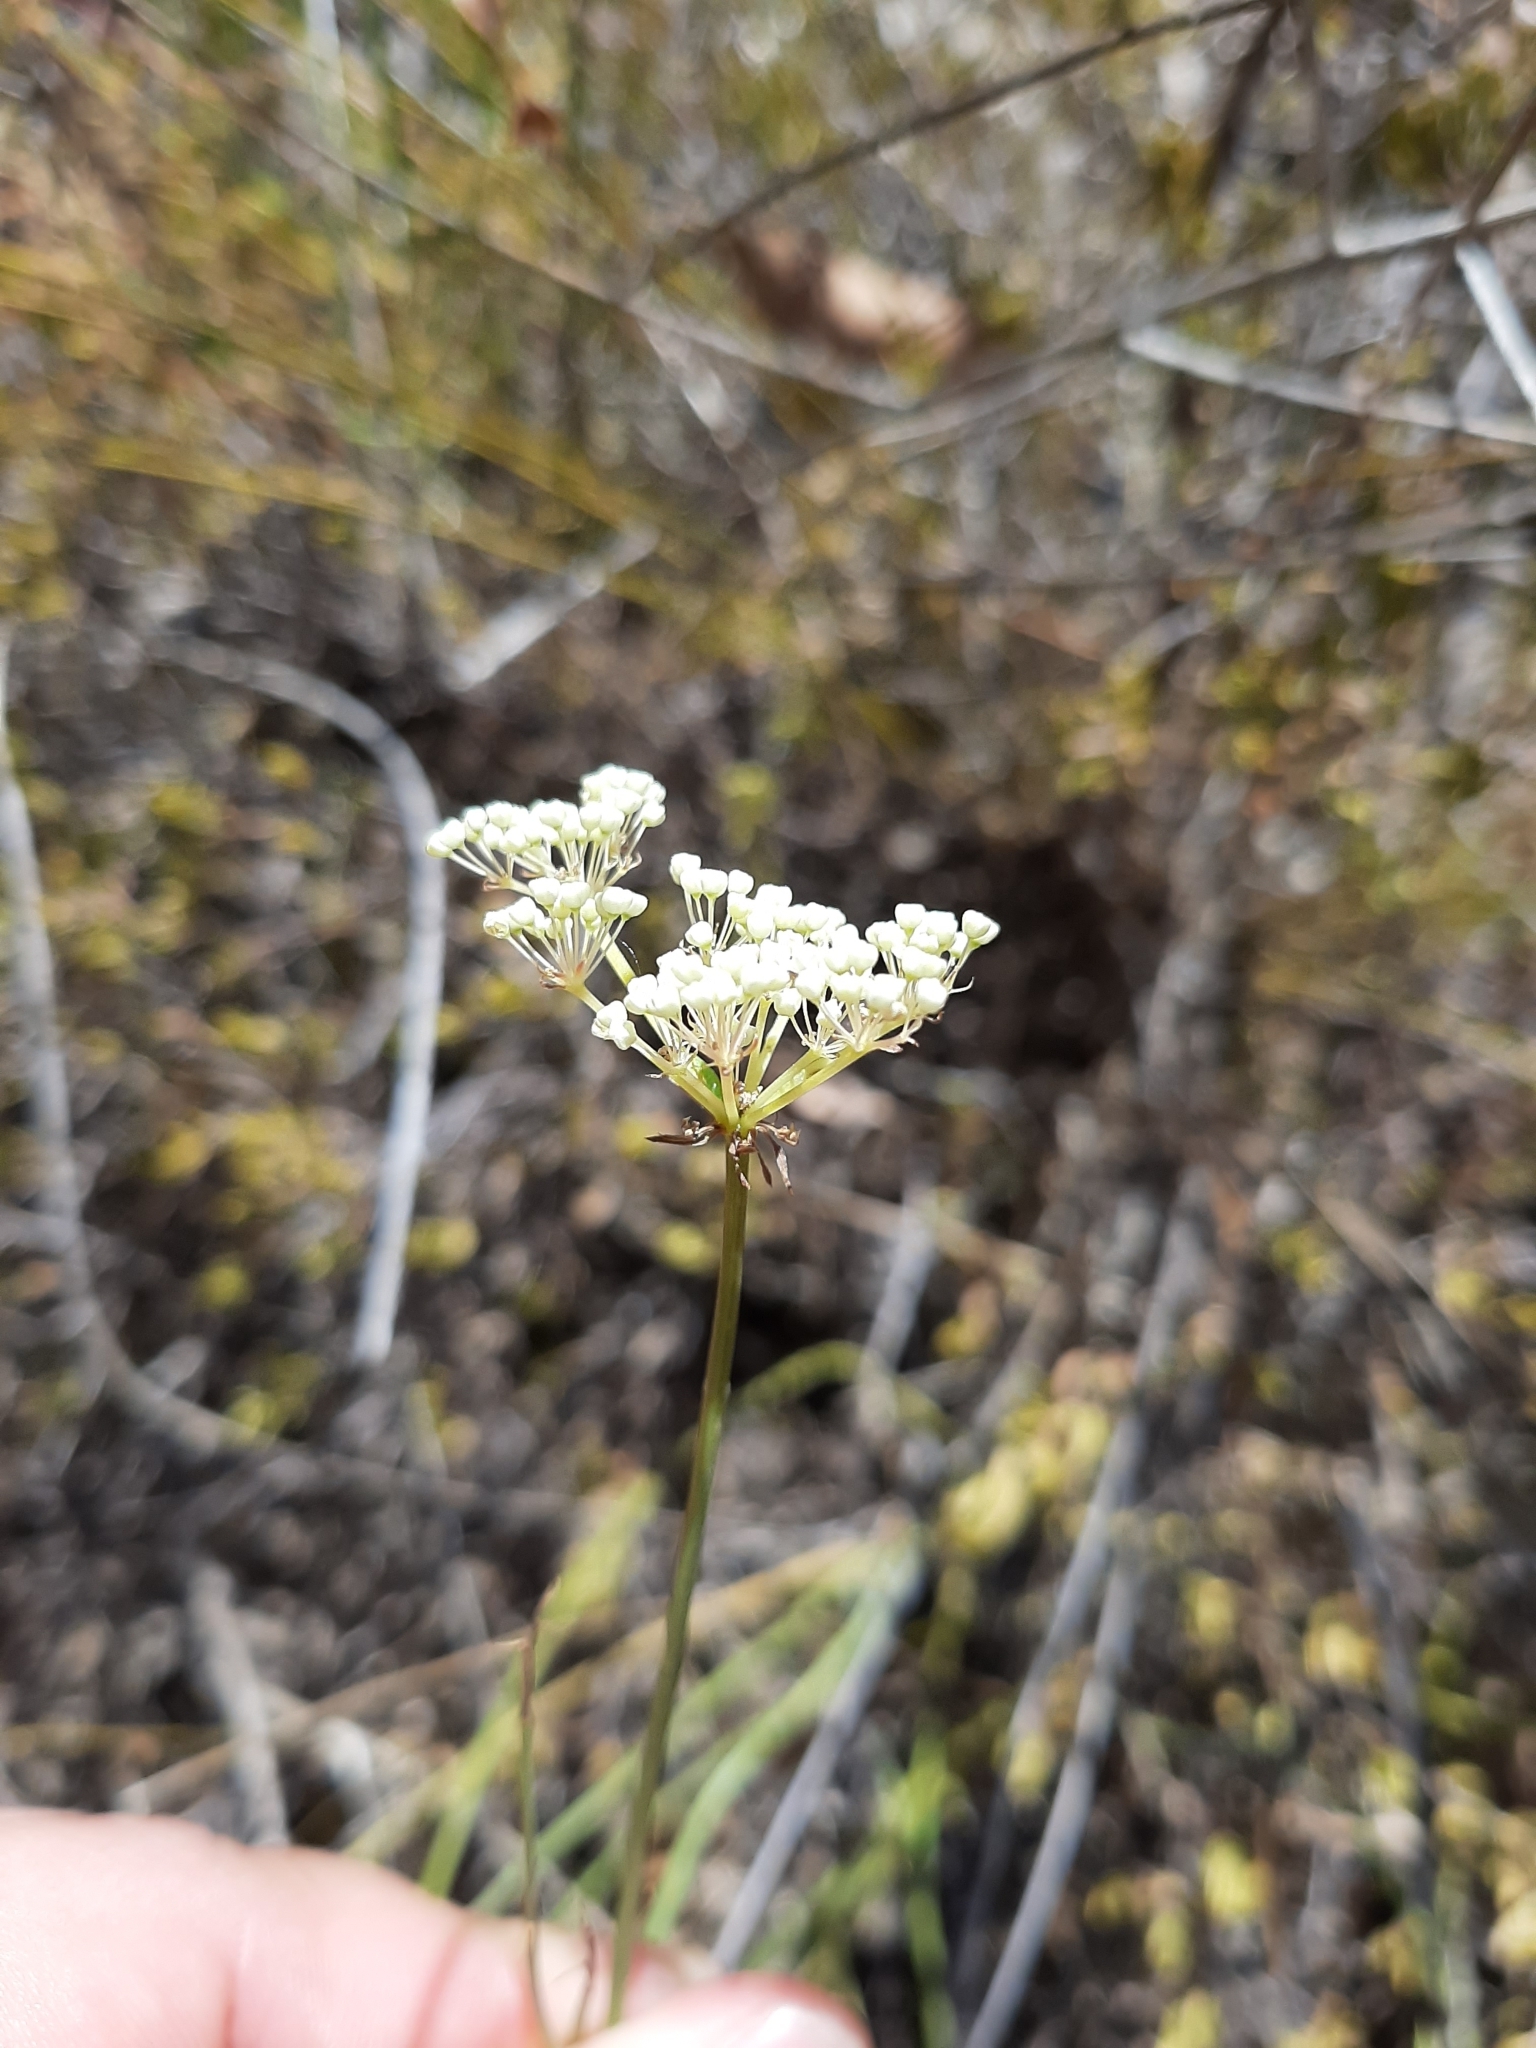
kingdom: Plantae
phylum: Tracheophyta
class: Magnoliopsida
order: Apiales
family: Apiaceae
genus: Platysace
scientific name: Platysace juncea
